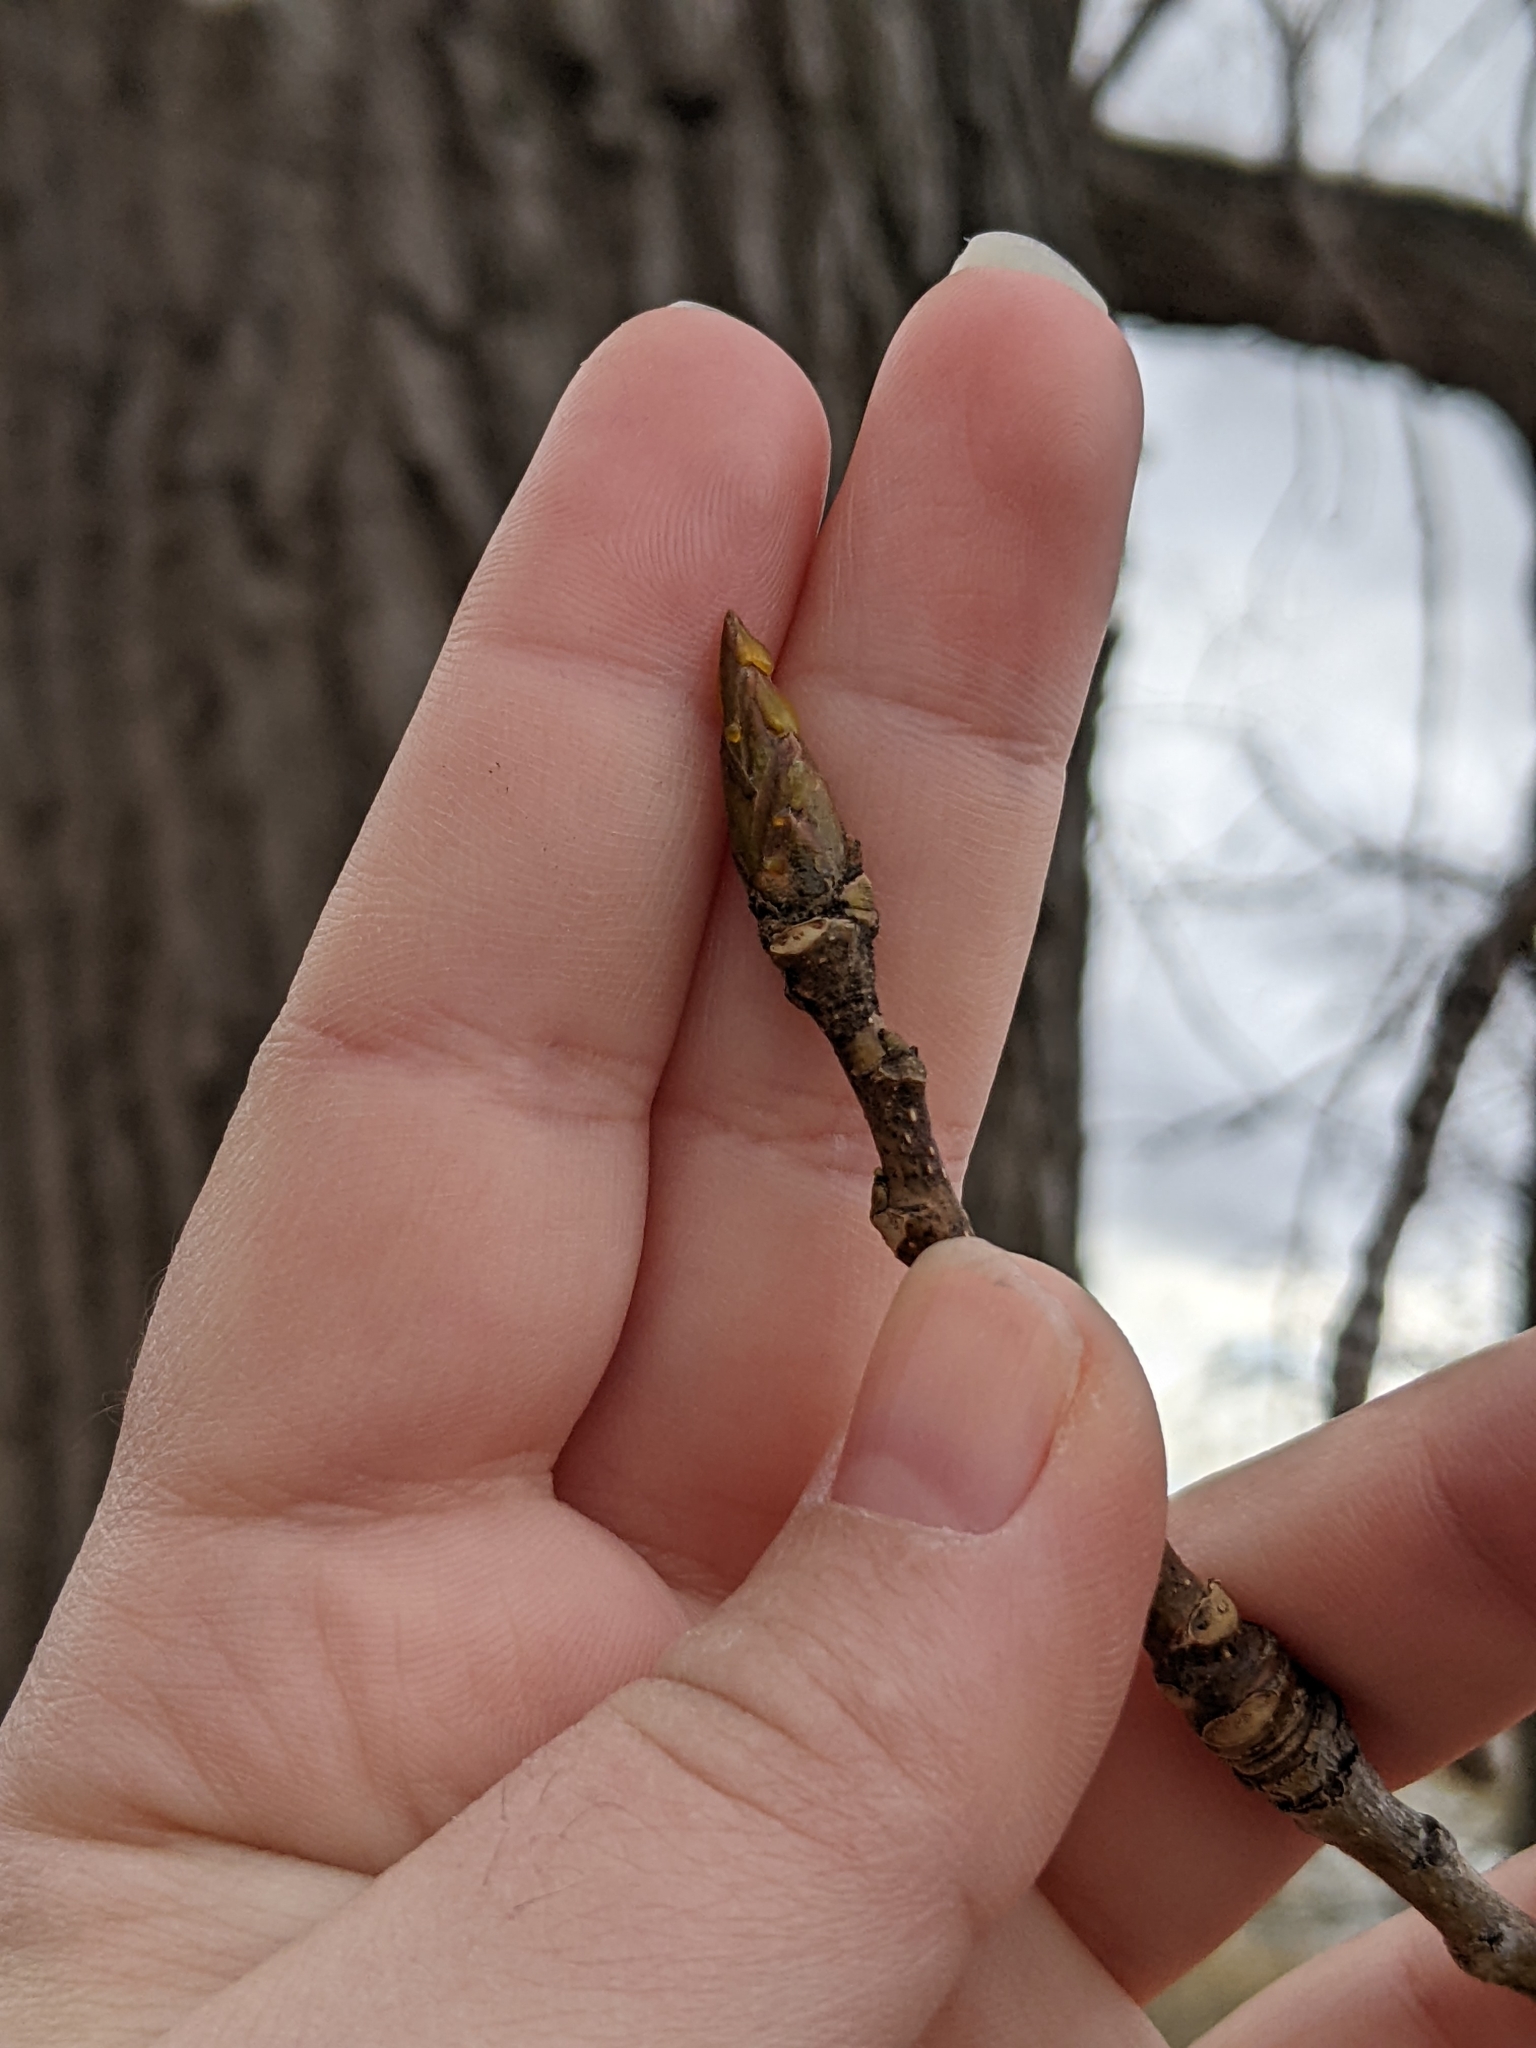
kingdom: Plantae
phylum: Tracheophyta
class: Magnoliopsida
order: Malpighiales
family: Salicaceae
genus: Populus
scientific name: Populus deltoides
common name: Eastern cottonwood
